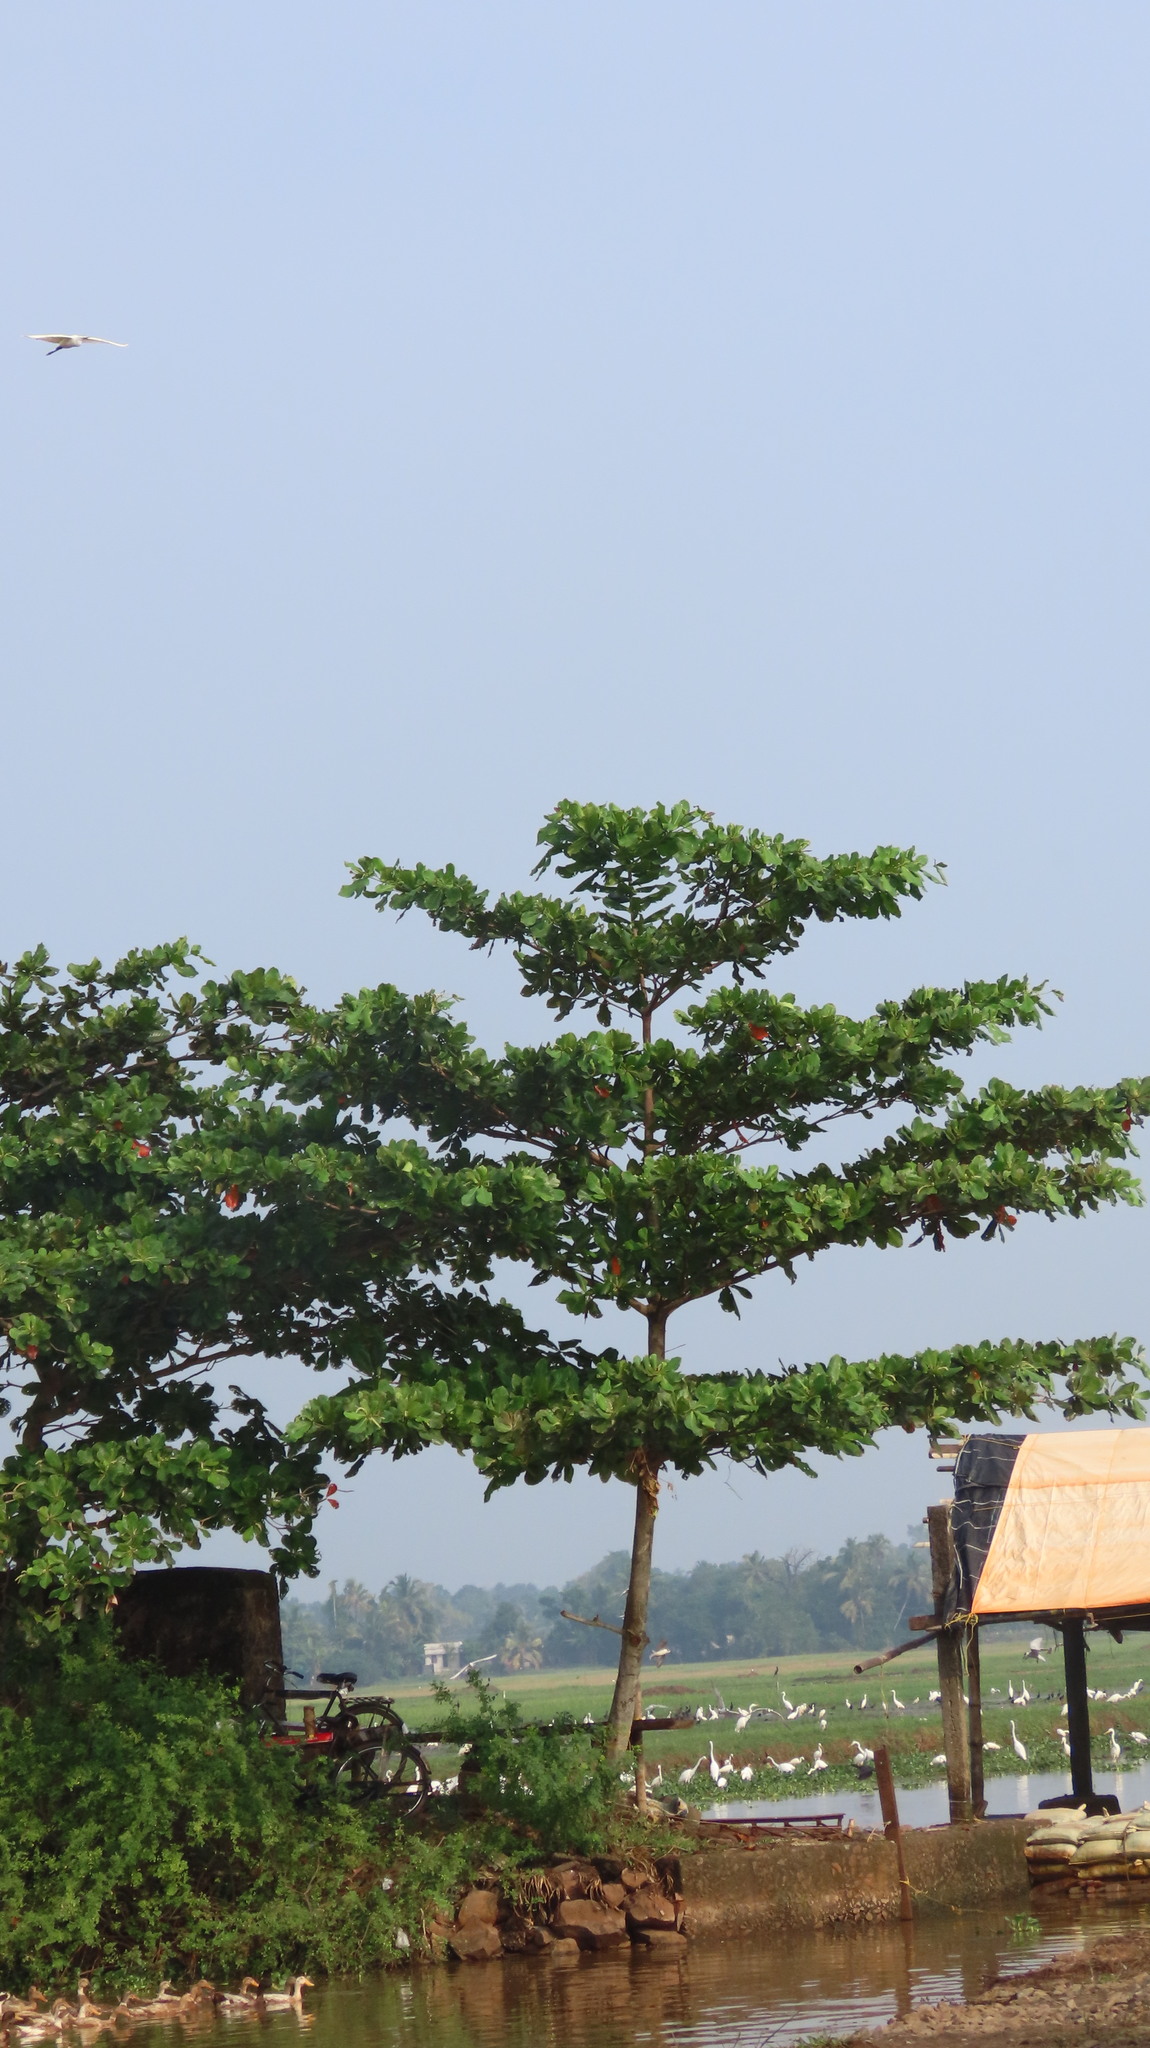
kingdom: Plantae
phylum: Tracheophyta
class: Magnoliopsida
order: Myrtales
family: Combretaceae
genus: Terminalia
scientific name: Terminalia catappa
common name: Tropical almond
